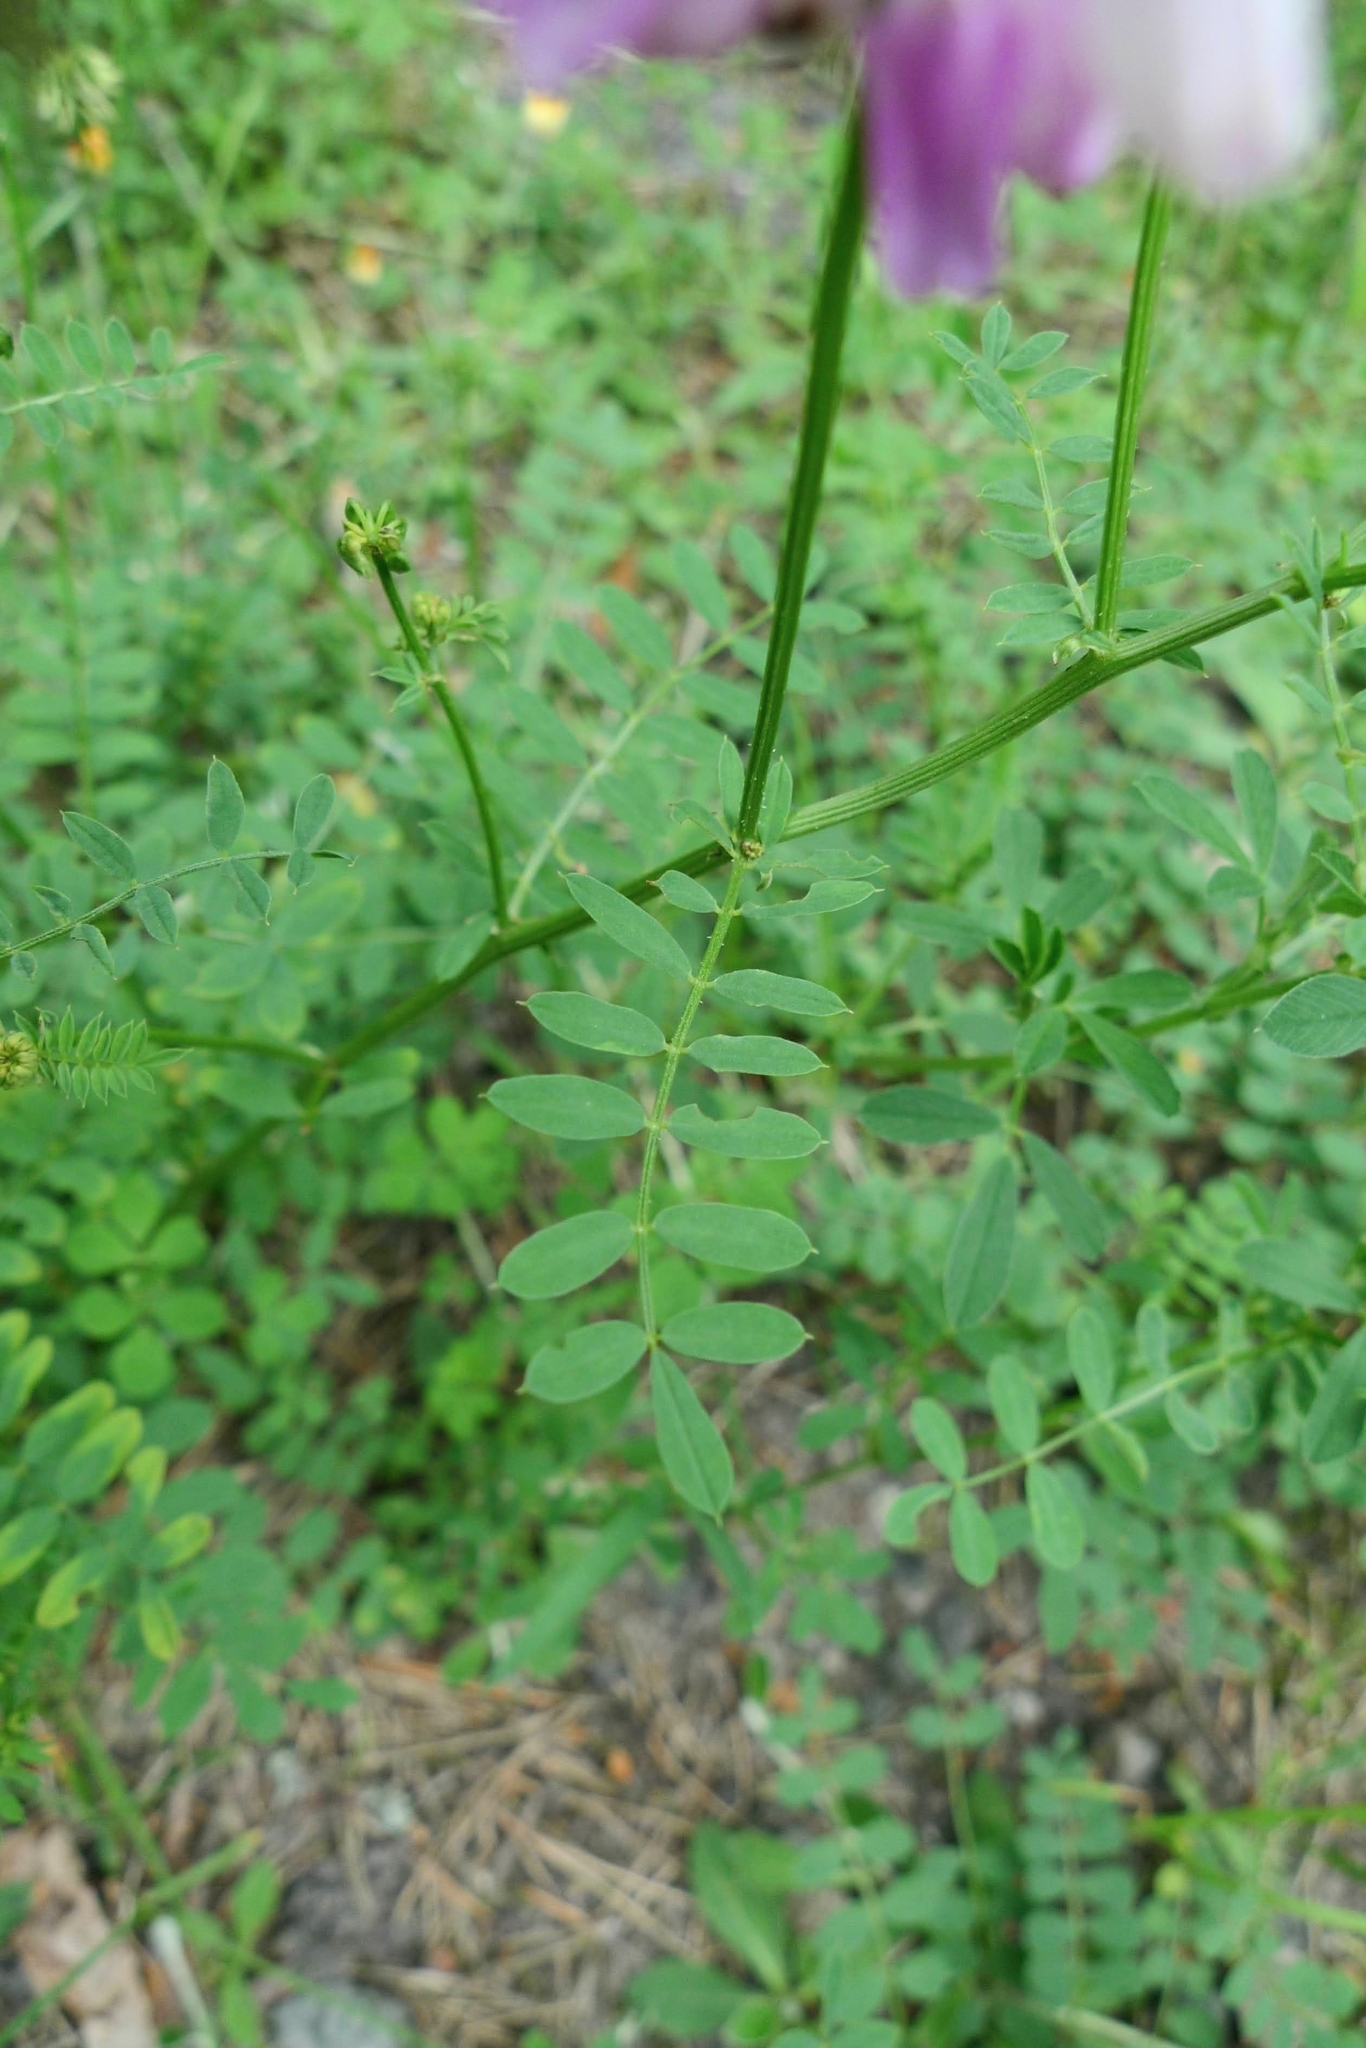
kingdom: Plantae
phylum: Tracheophyta
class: Magnoliopsida
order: Fabales
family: Fabaceae
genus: Coronilla
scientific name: Coronilla varia
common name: Crownvetch
